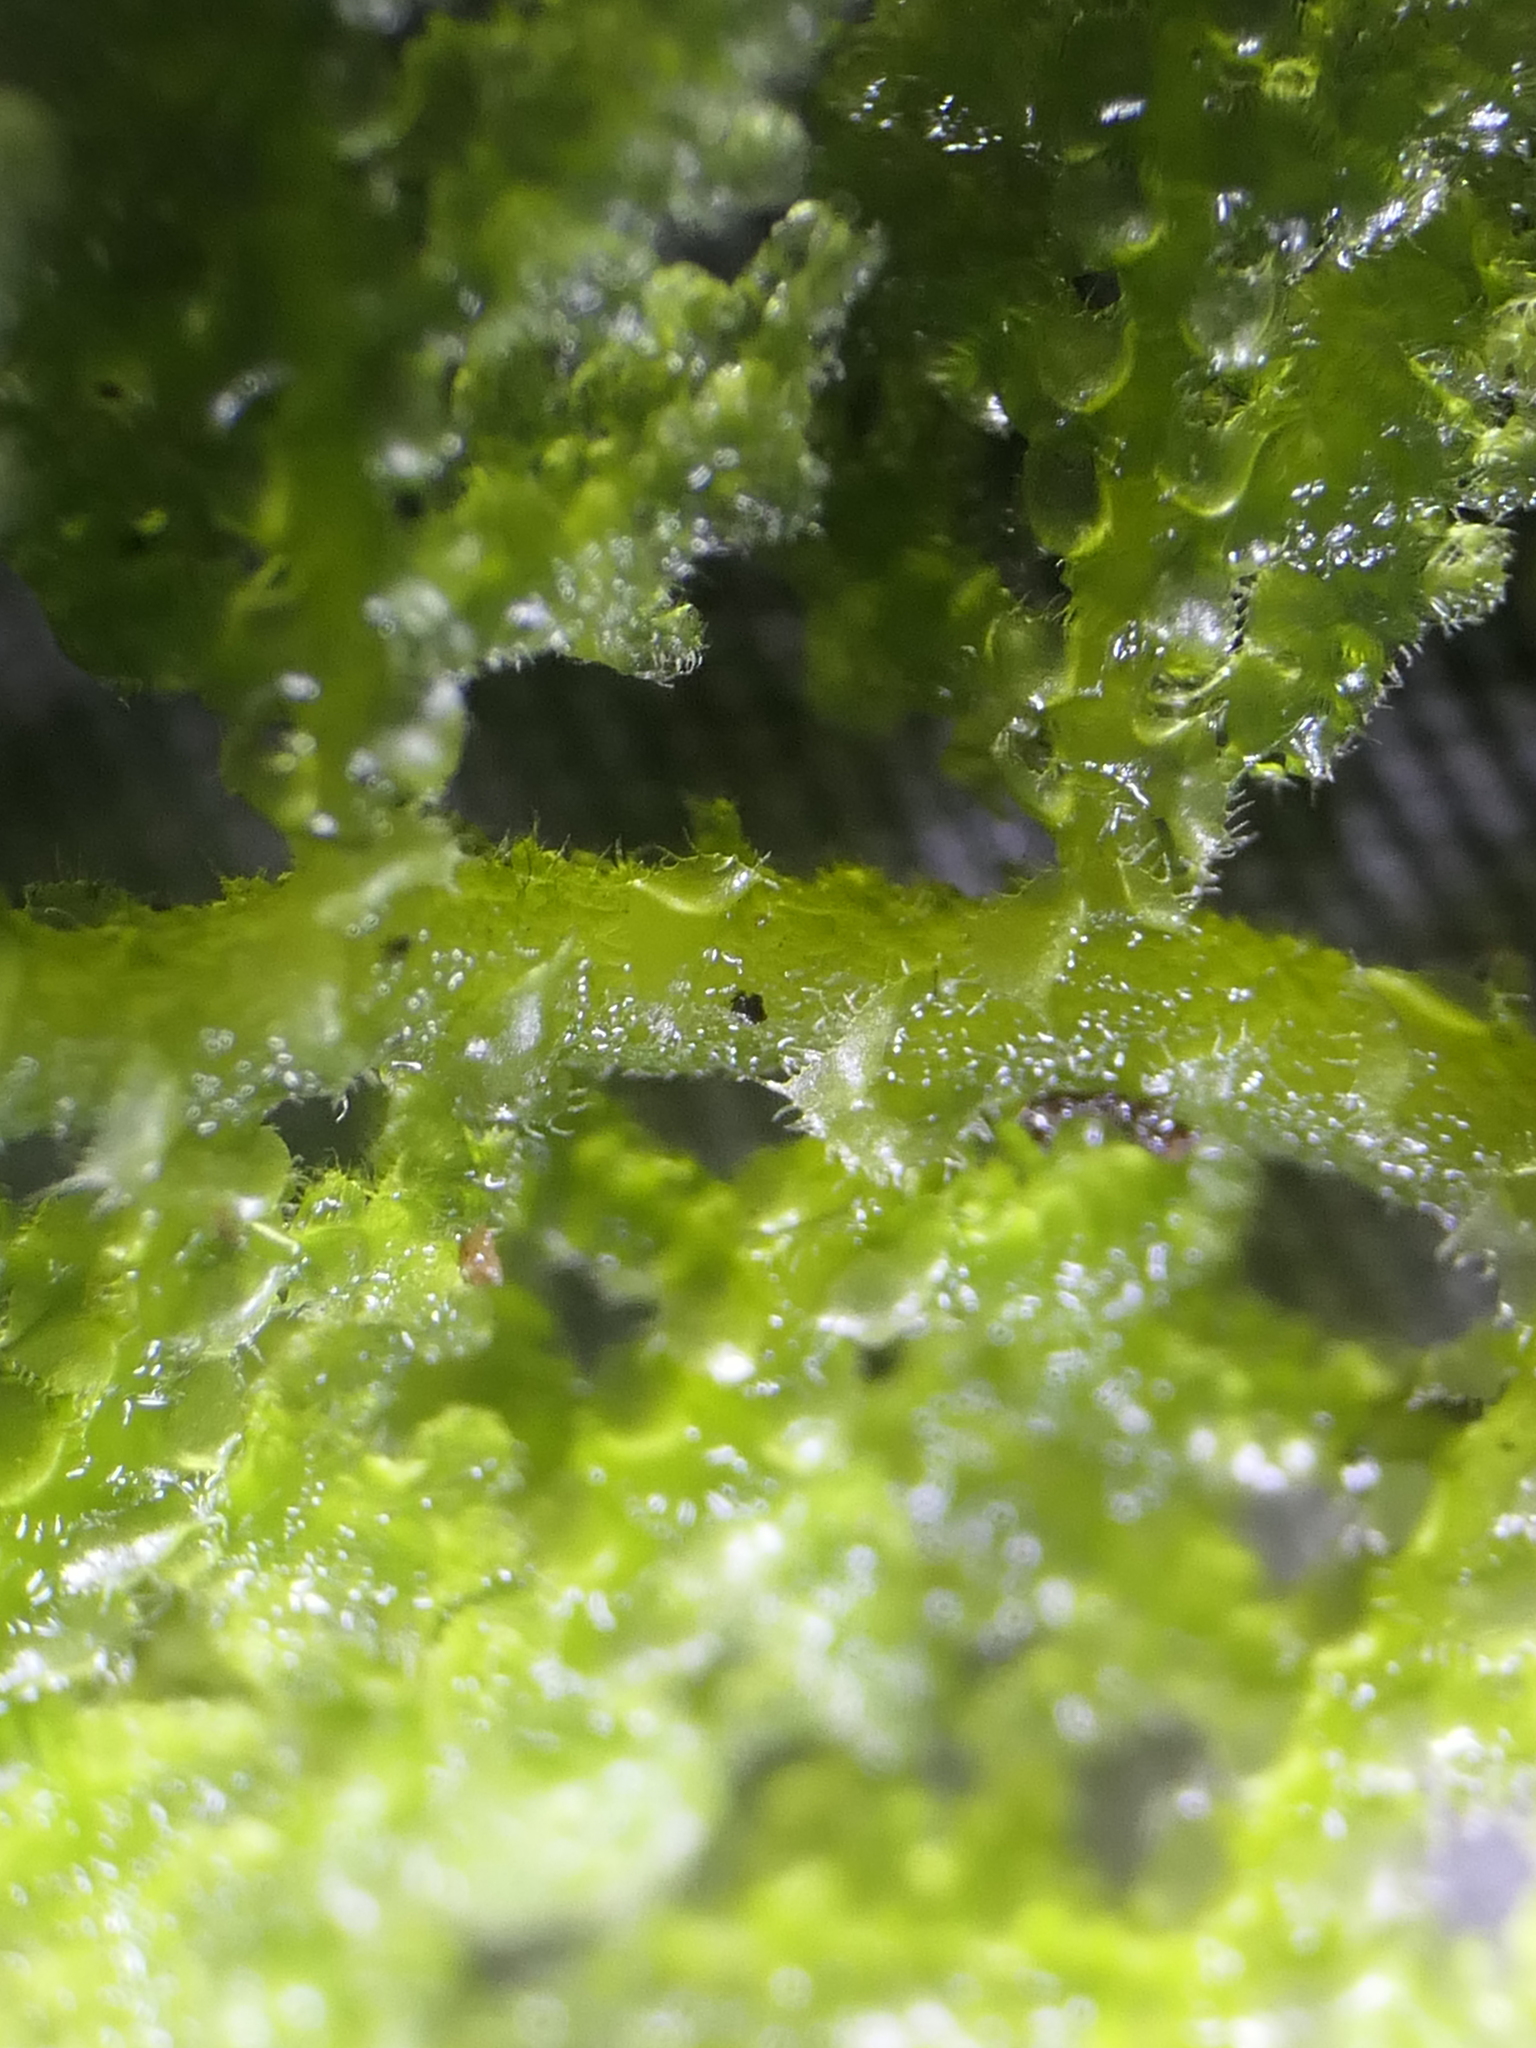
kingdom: Plantae
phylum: Marchantiophyta
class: Jungermanniopsida
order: Jungermanniales
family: Trichocoleaceae
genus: Trichocolea
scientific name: Trichocolea mollissima
